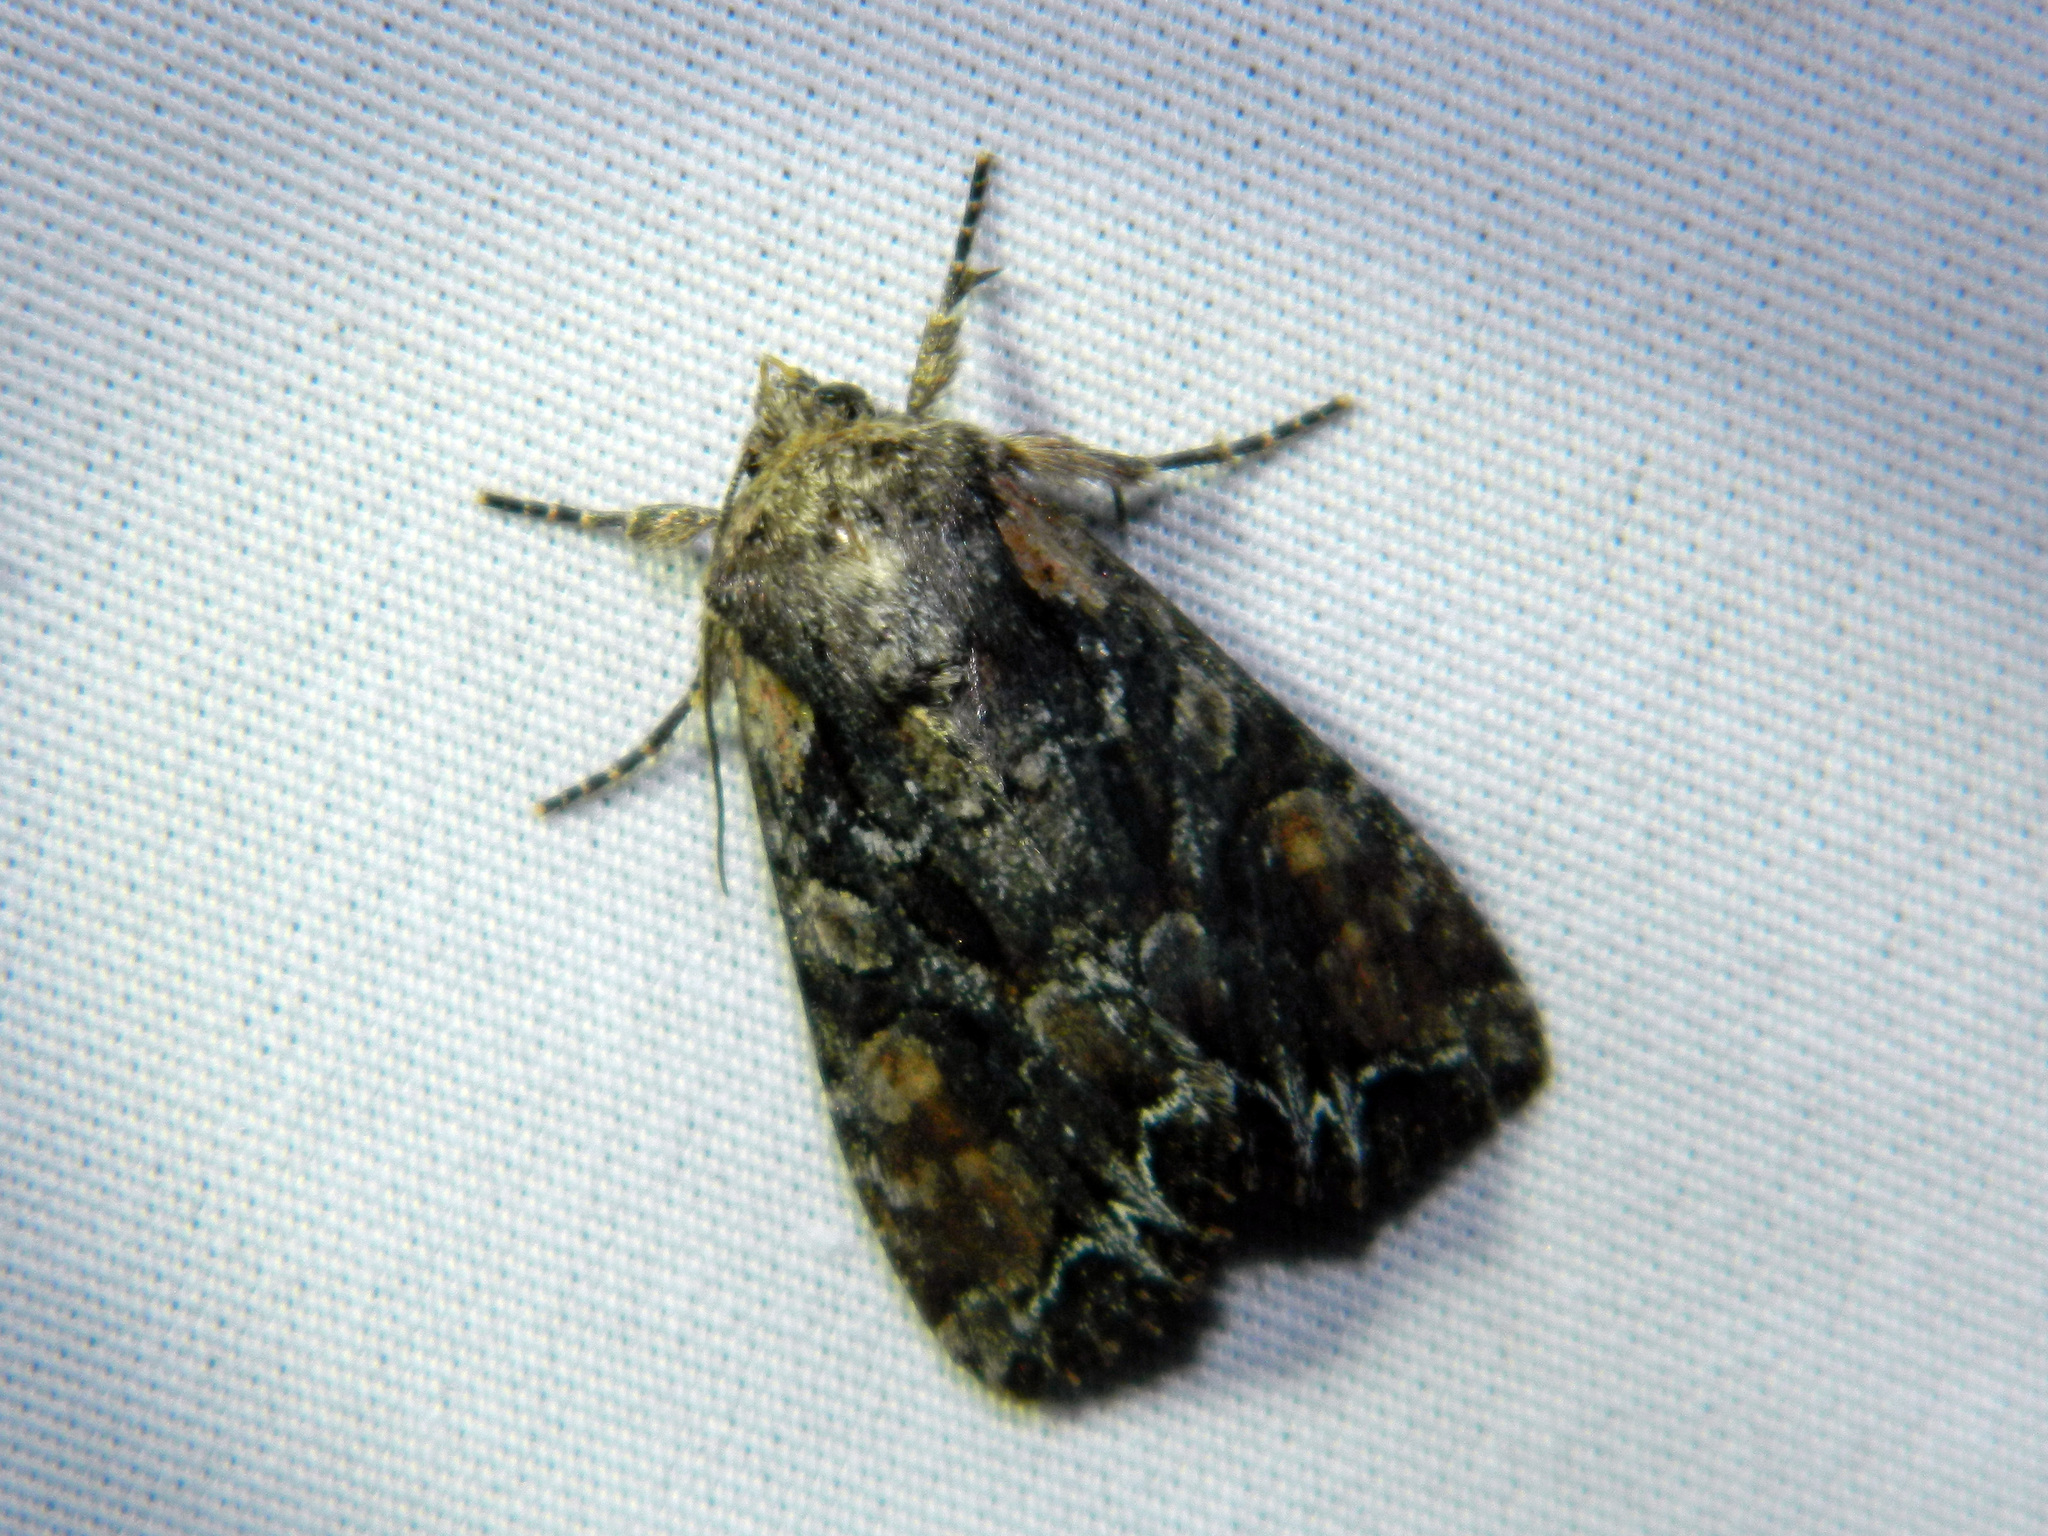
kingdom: Animalia
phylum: Arthropoda
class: Insecta
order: Lepidoptera
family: Noctuidae
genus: Lacanobia
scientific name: Lacanobia nevadae
